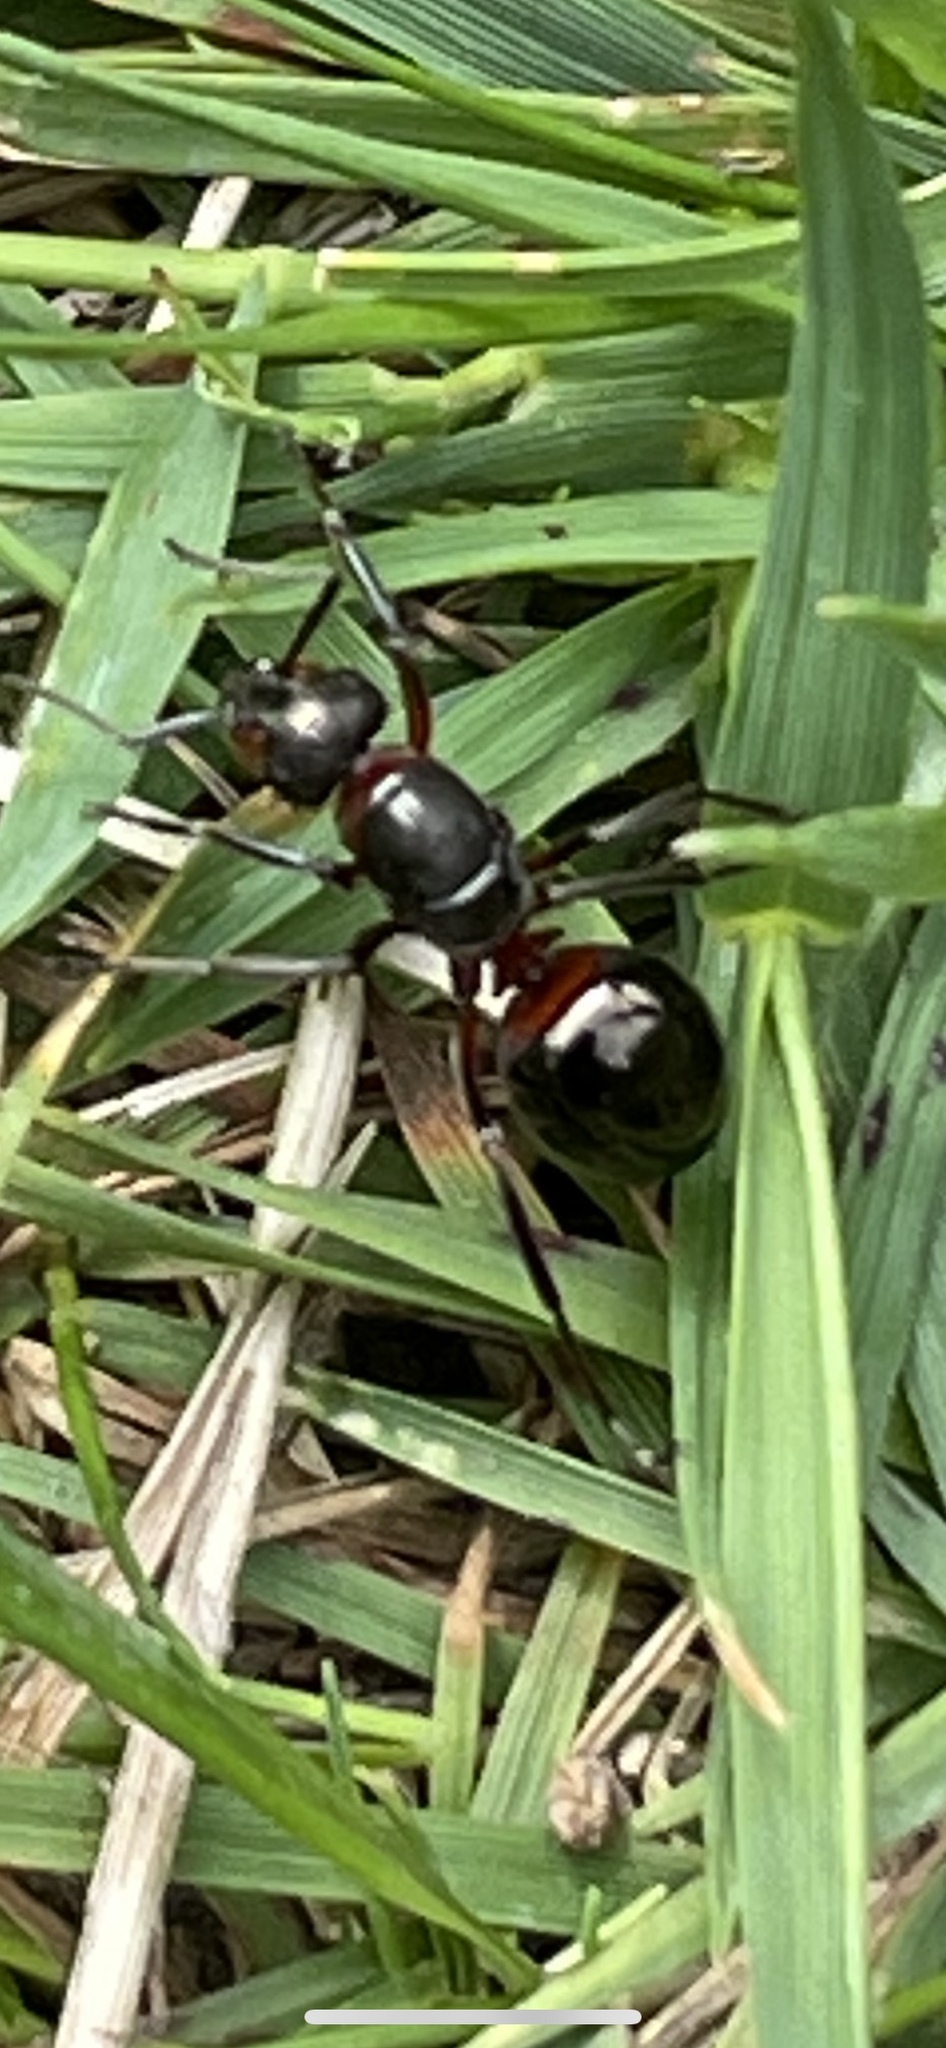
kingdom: Animalia
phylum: Arthropoda
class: Insecta
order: Hymenoptera
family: Formicidae
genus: Formica
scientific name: Formica
